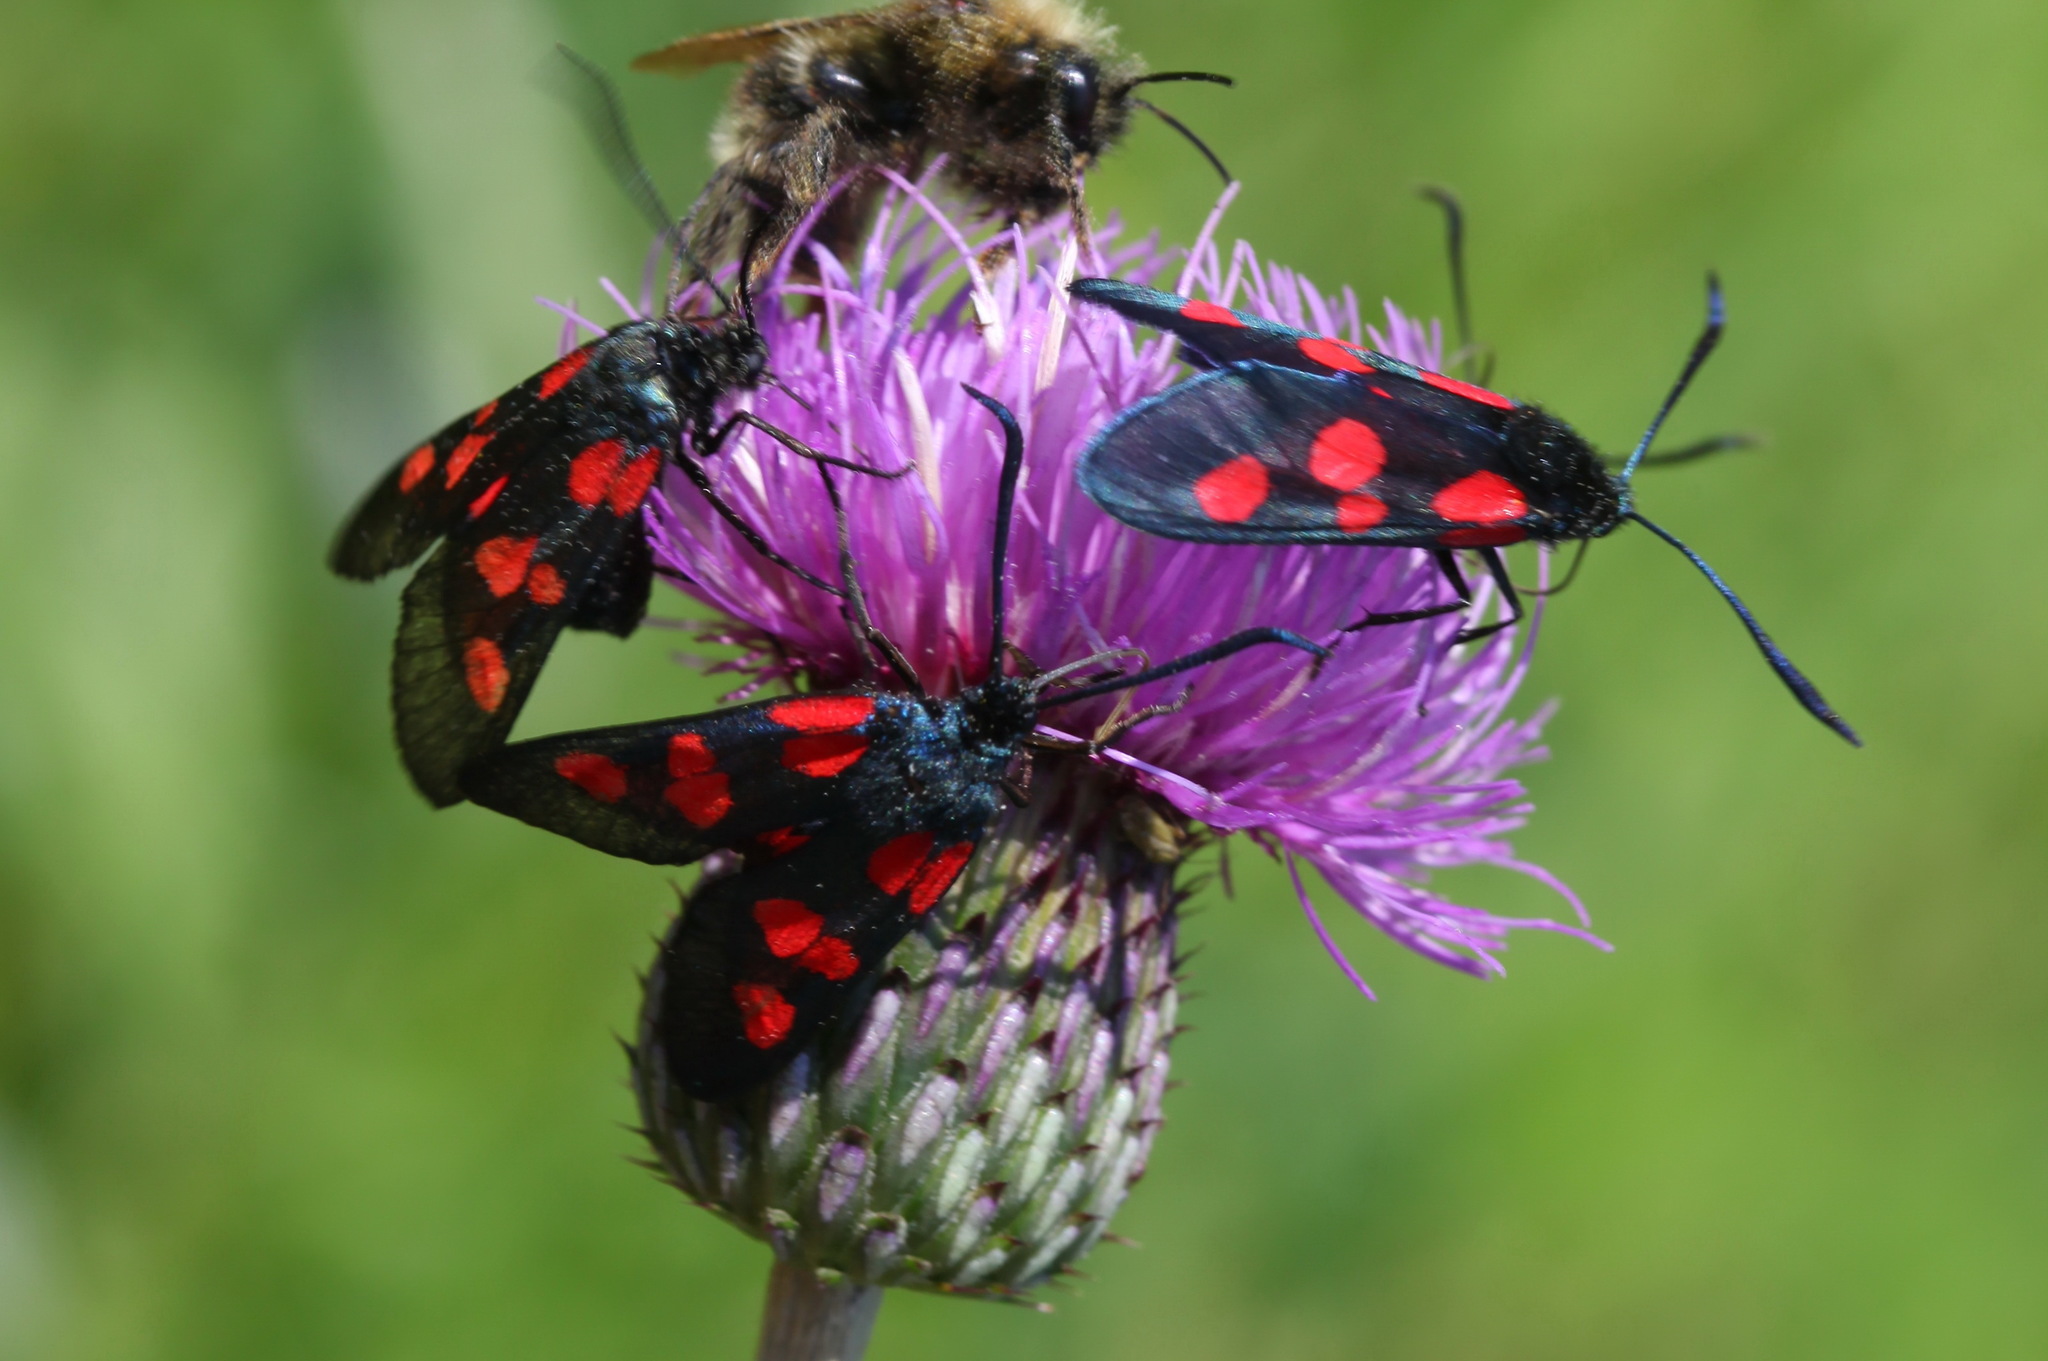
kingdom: Animalia
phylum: Arthropoda
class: Insecta
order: Lepidoptera
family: Zygaenidae
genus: Zygaena
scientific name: Zygaena lonicerae
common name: Narrow-bordered five-spot burnet
